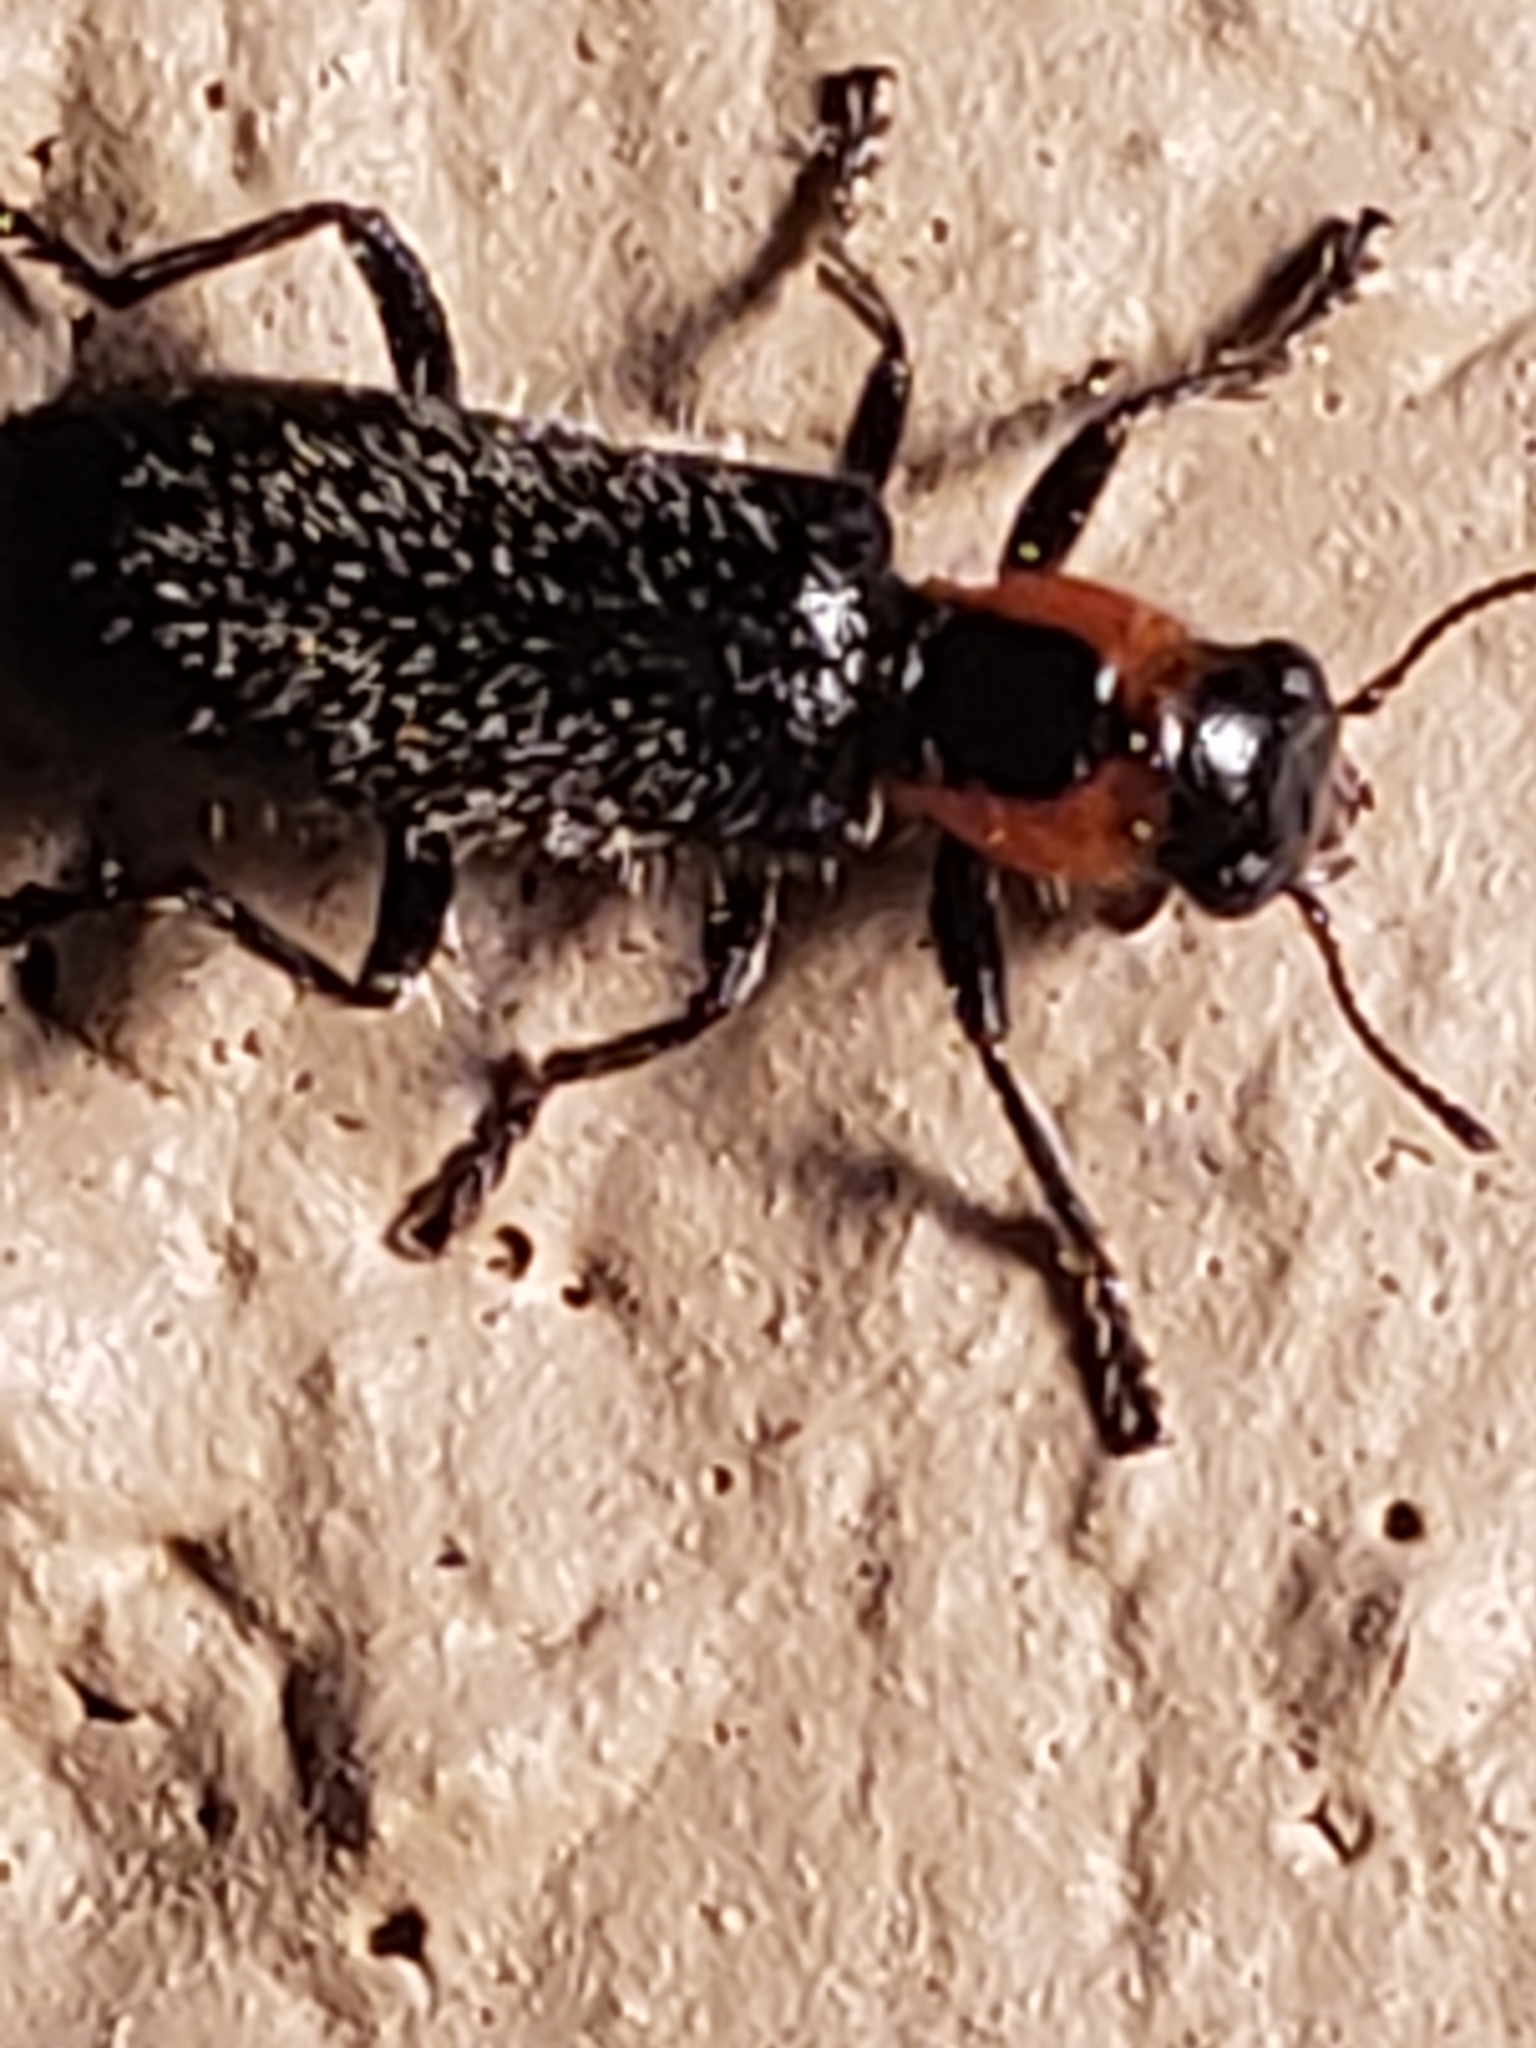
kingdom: Animalia
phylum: Arthropoda
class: Insecta
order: Coleoptera
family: Cleridae
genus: Placopterus
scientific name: Placopterus thoracicus
